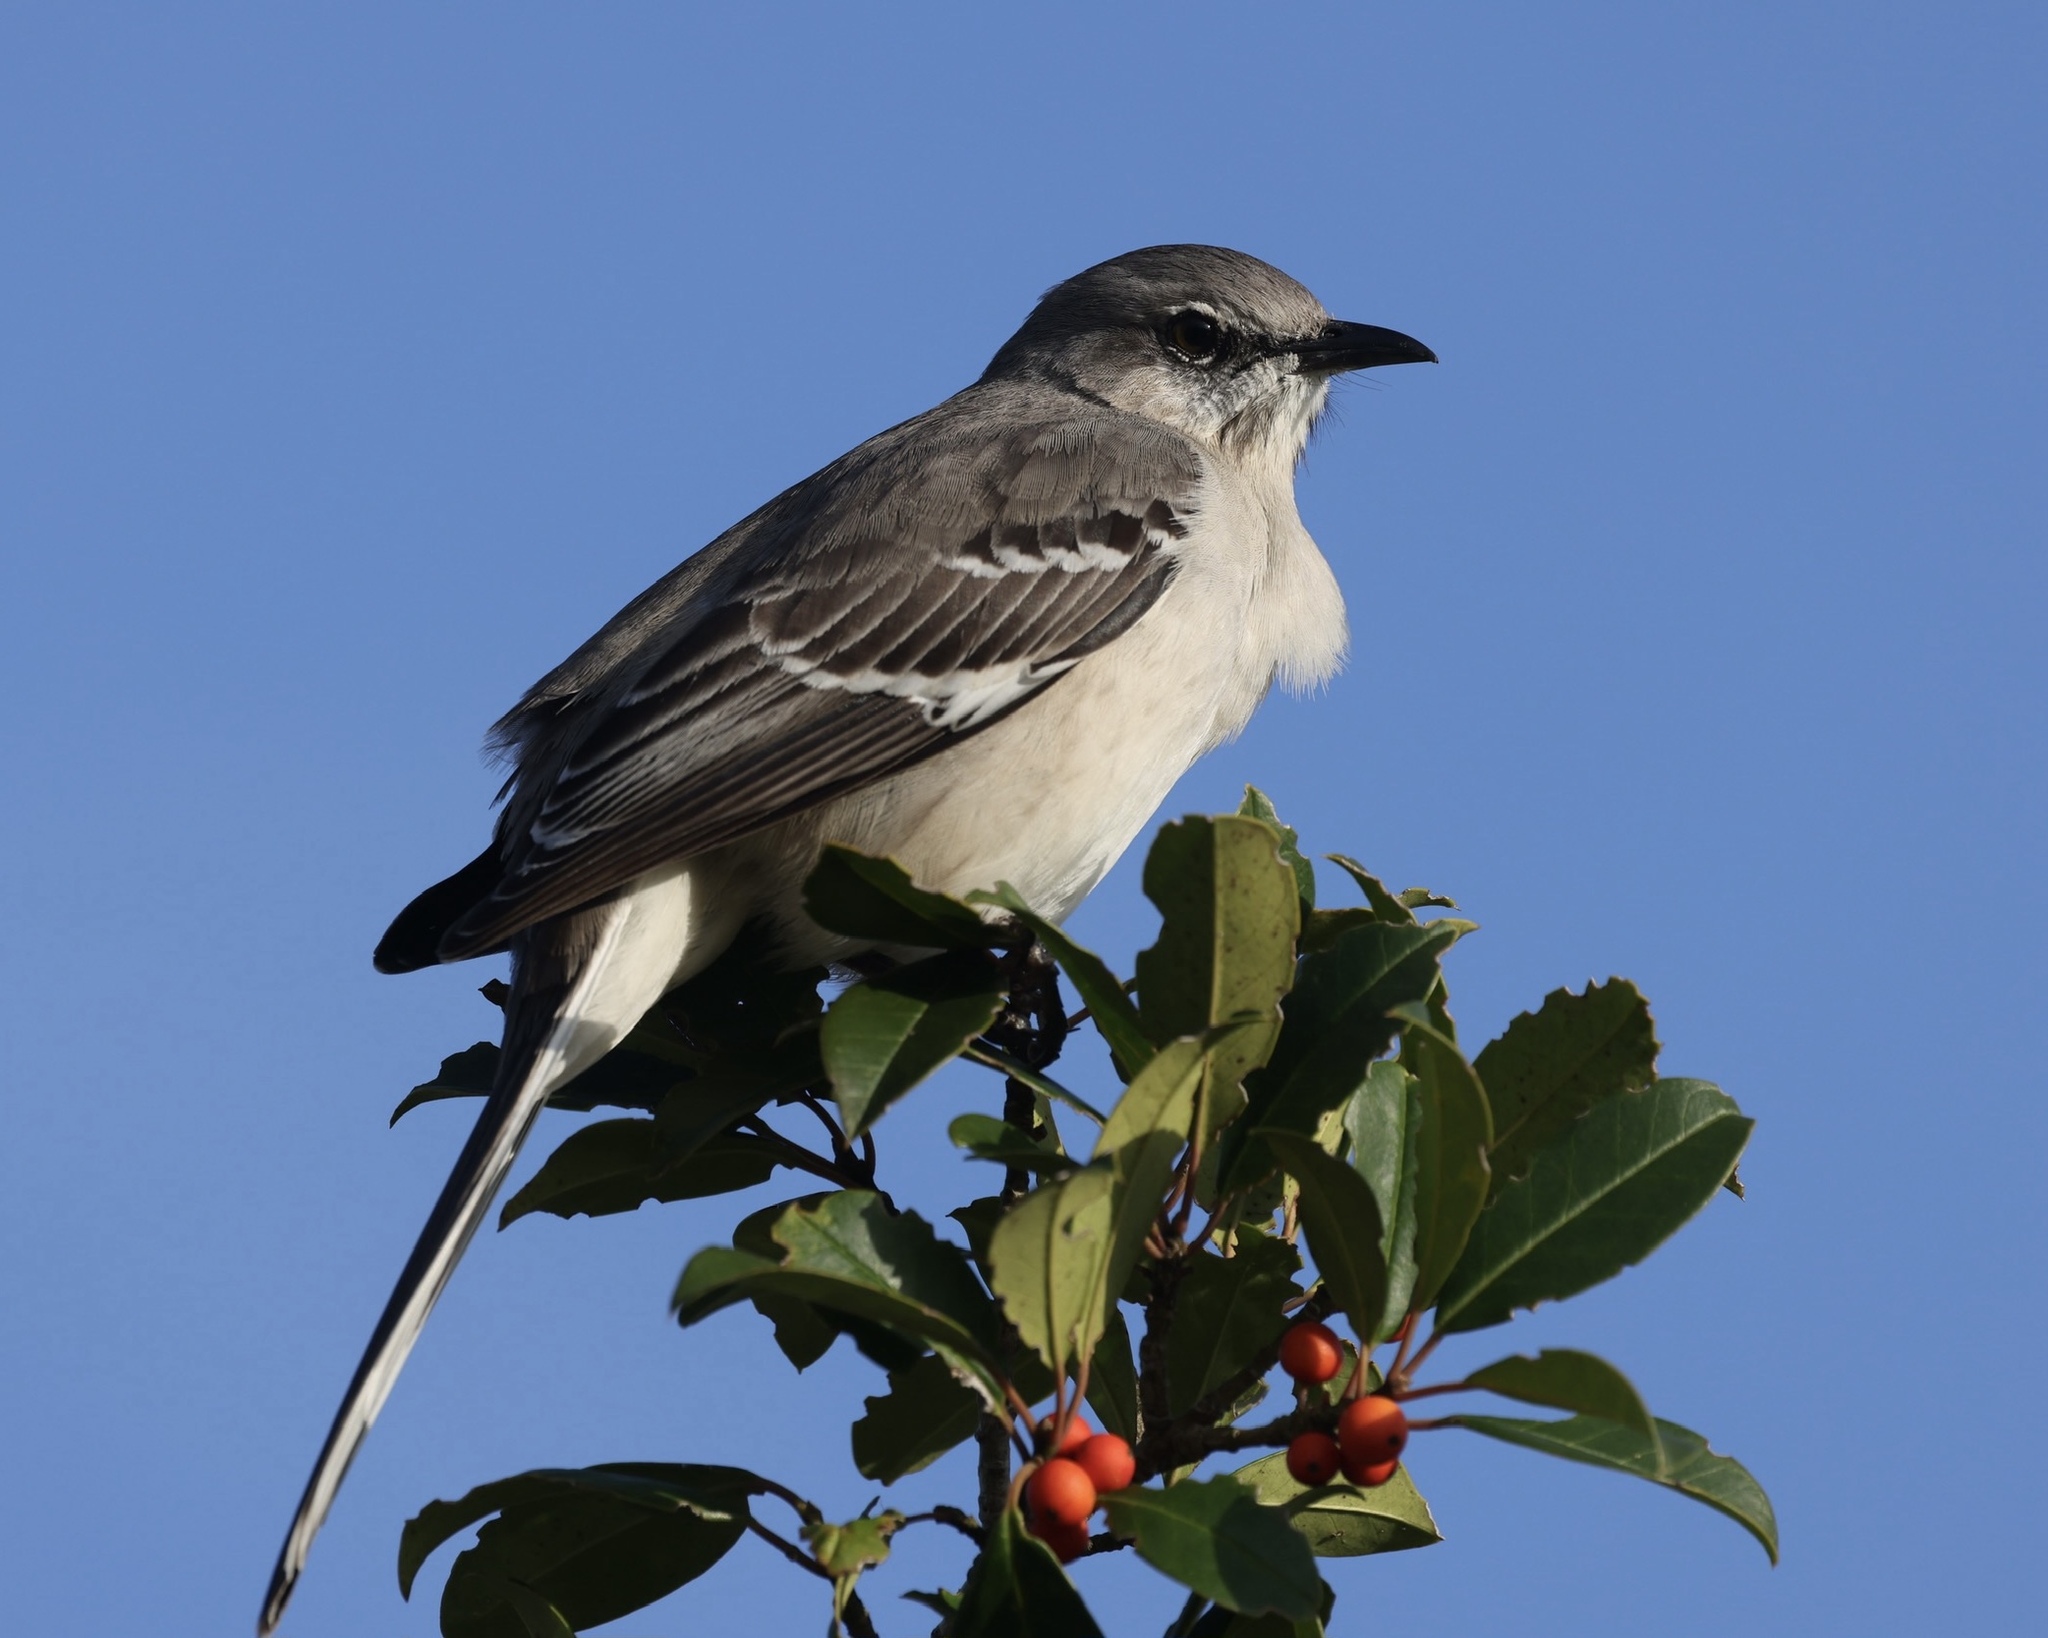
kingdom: Animalia
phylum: Chordata
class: Aves
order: Passeriformes
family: Mimidae
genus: Mimus
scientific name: Mimus polyglottos
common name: Northern mockingbird
